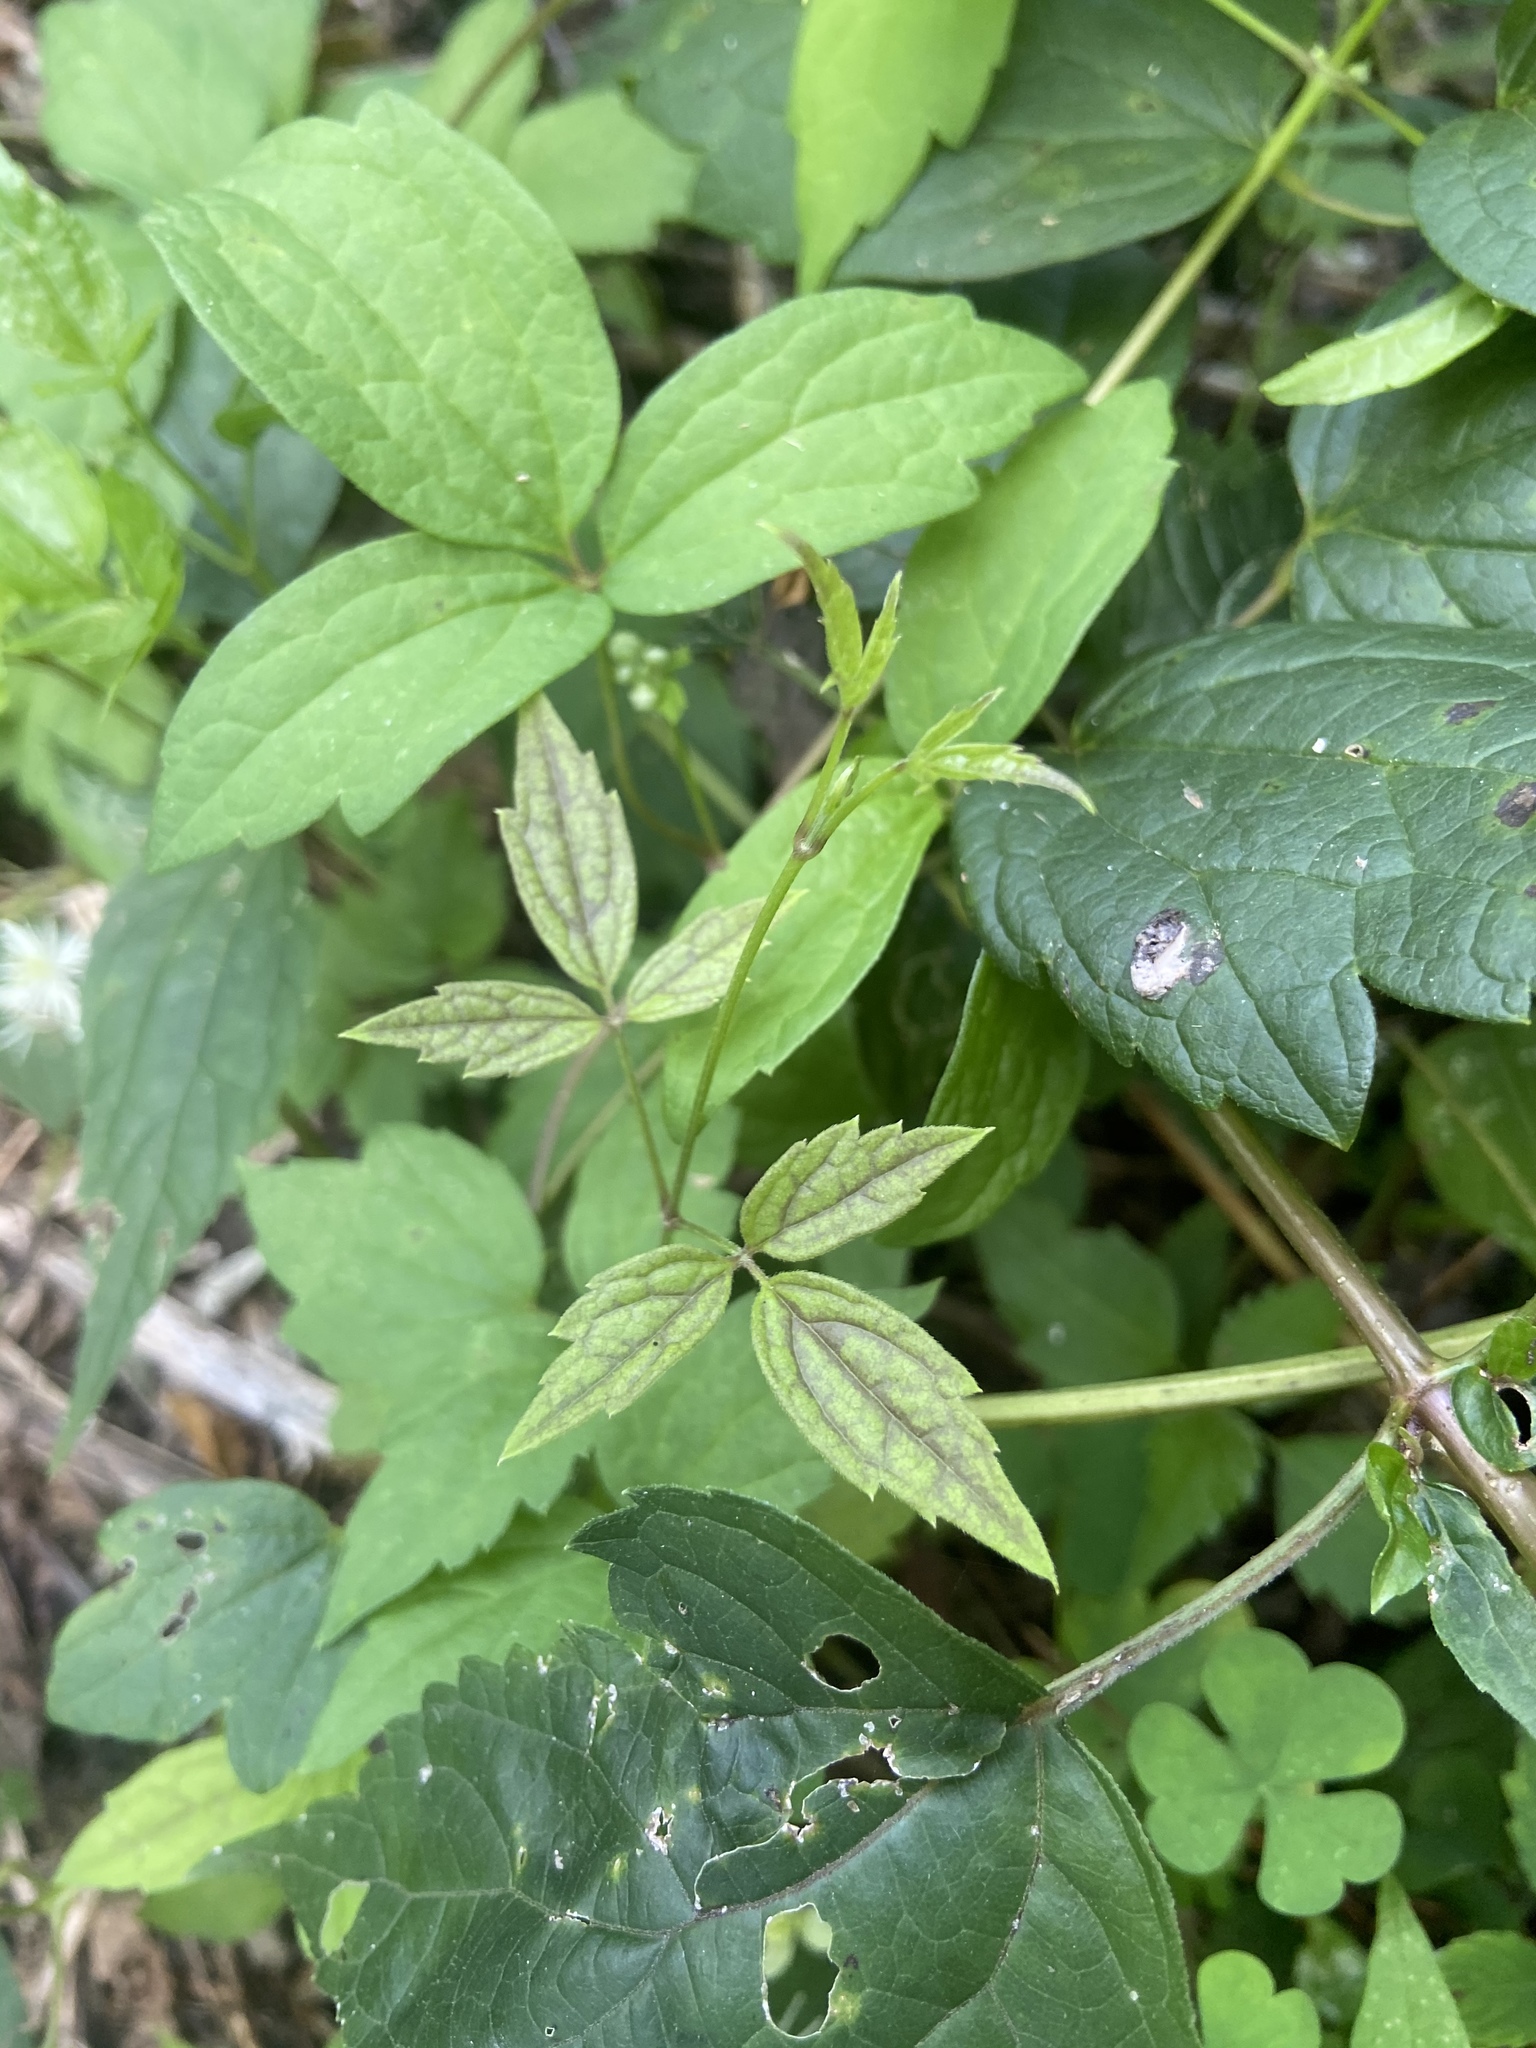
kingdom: Plantae
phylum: Tracheophyta
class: Magnoliopsida
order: Ranunculales
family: Ranunculaceae
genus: Clematis
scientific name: Clematis virginiana
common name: Virgin's-bower
